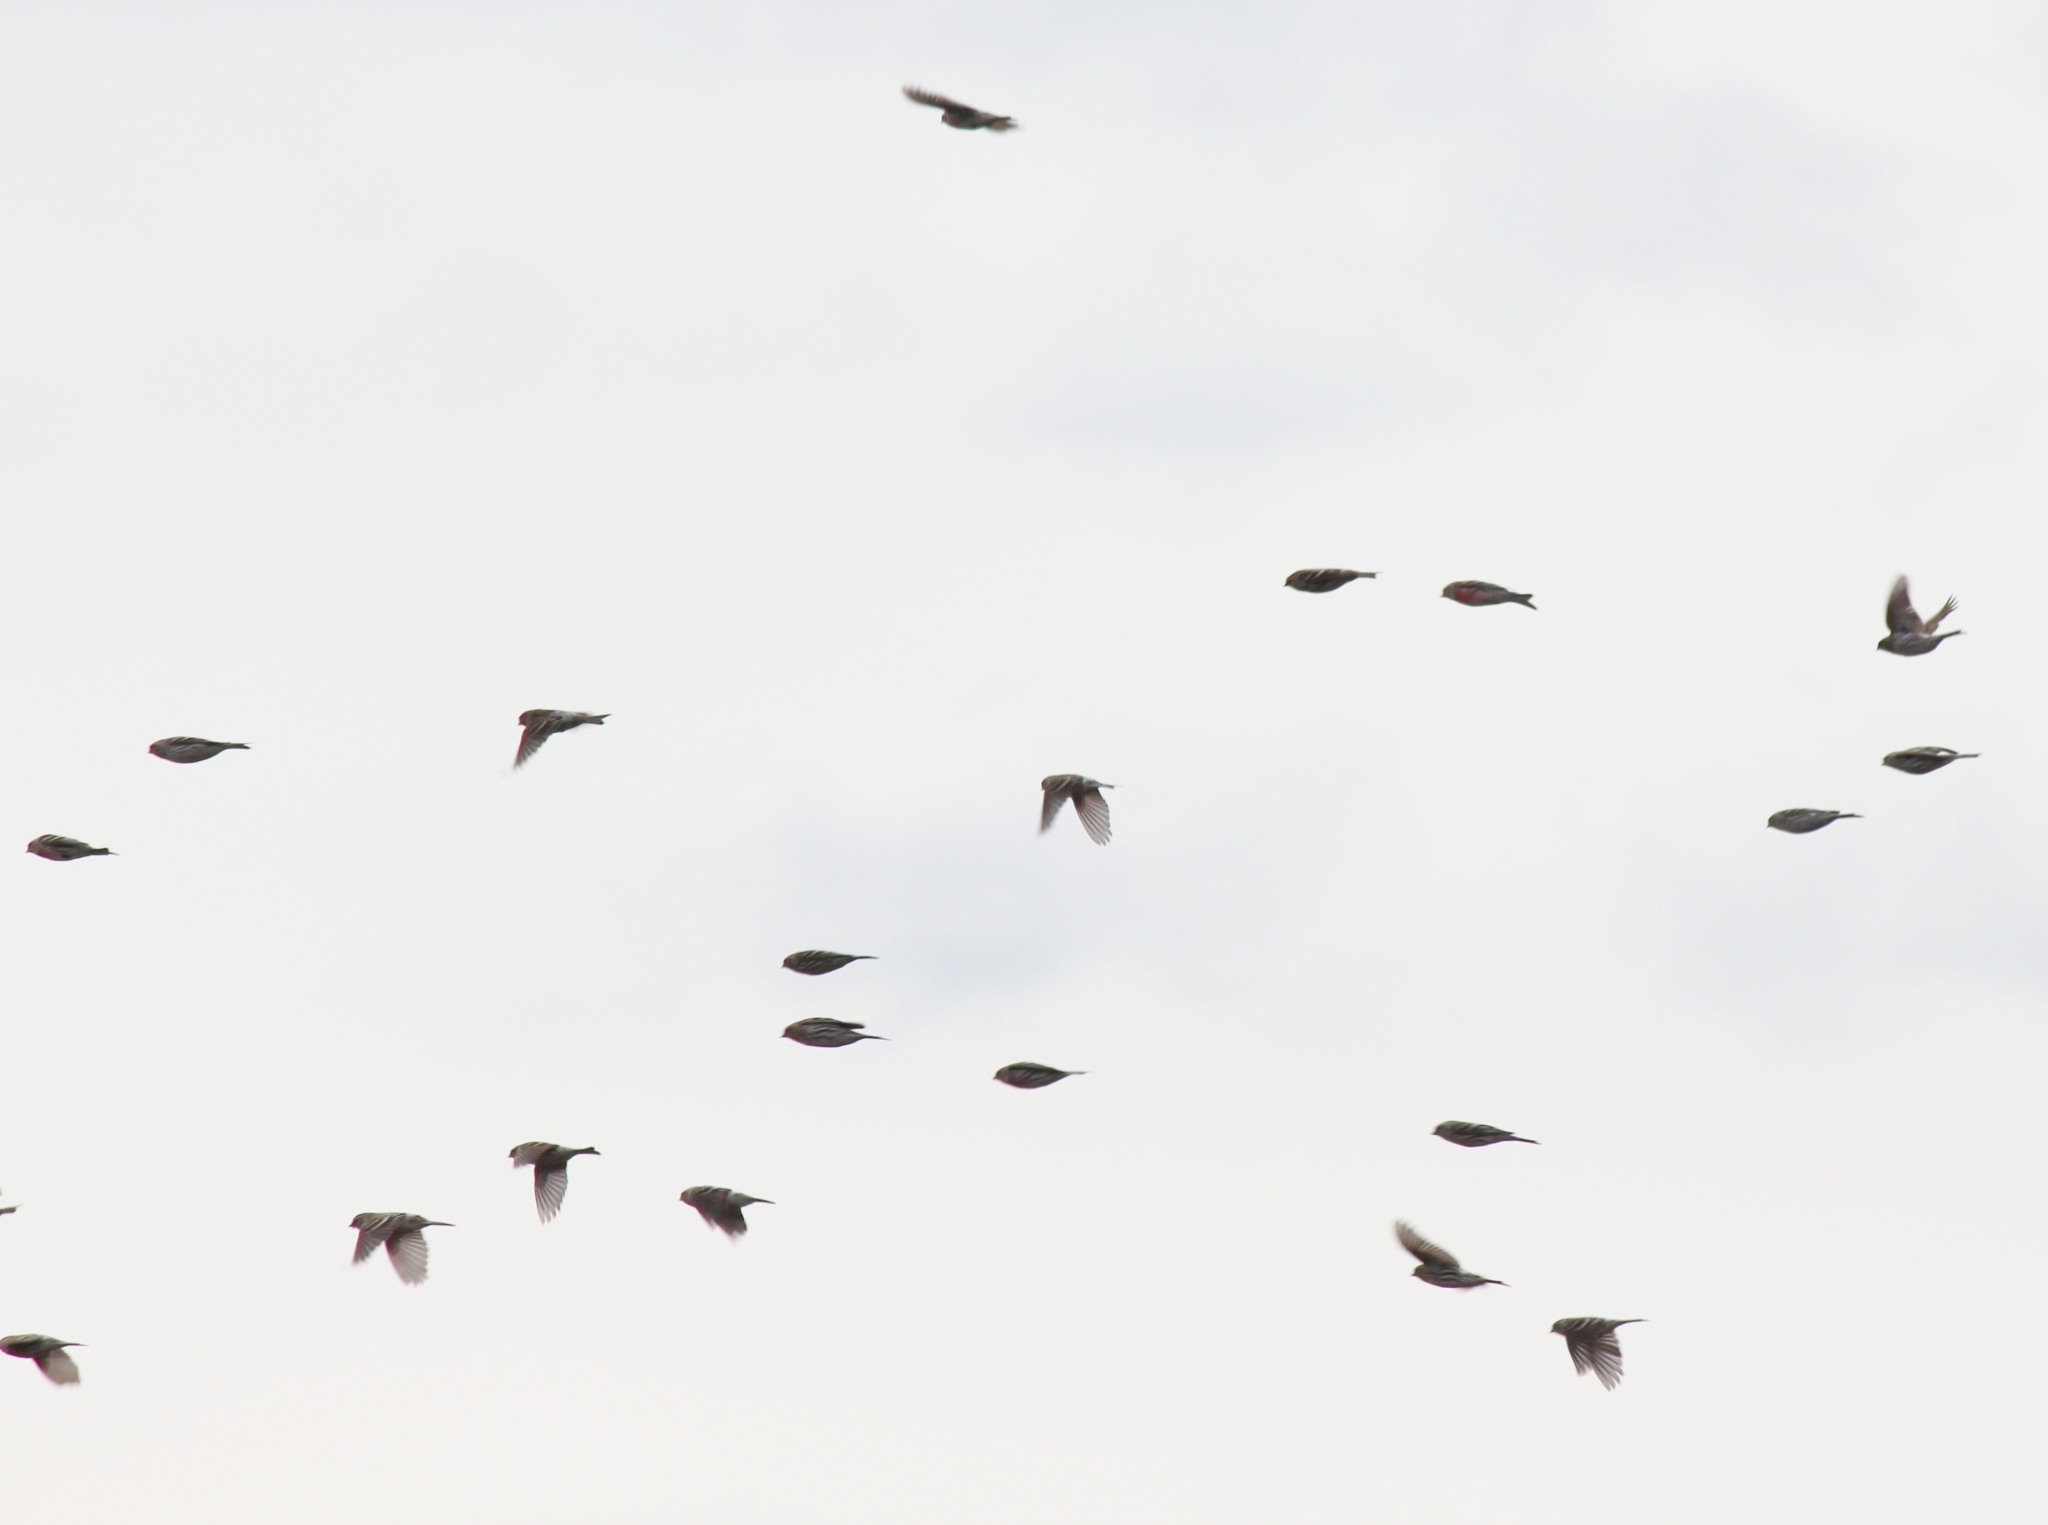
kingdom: Animalia
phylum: Chordata
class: Aves
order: Passeriformes
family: Fringillidae
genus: Acanthis
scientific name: Acanthis flammea
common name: Common redpoll
